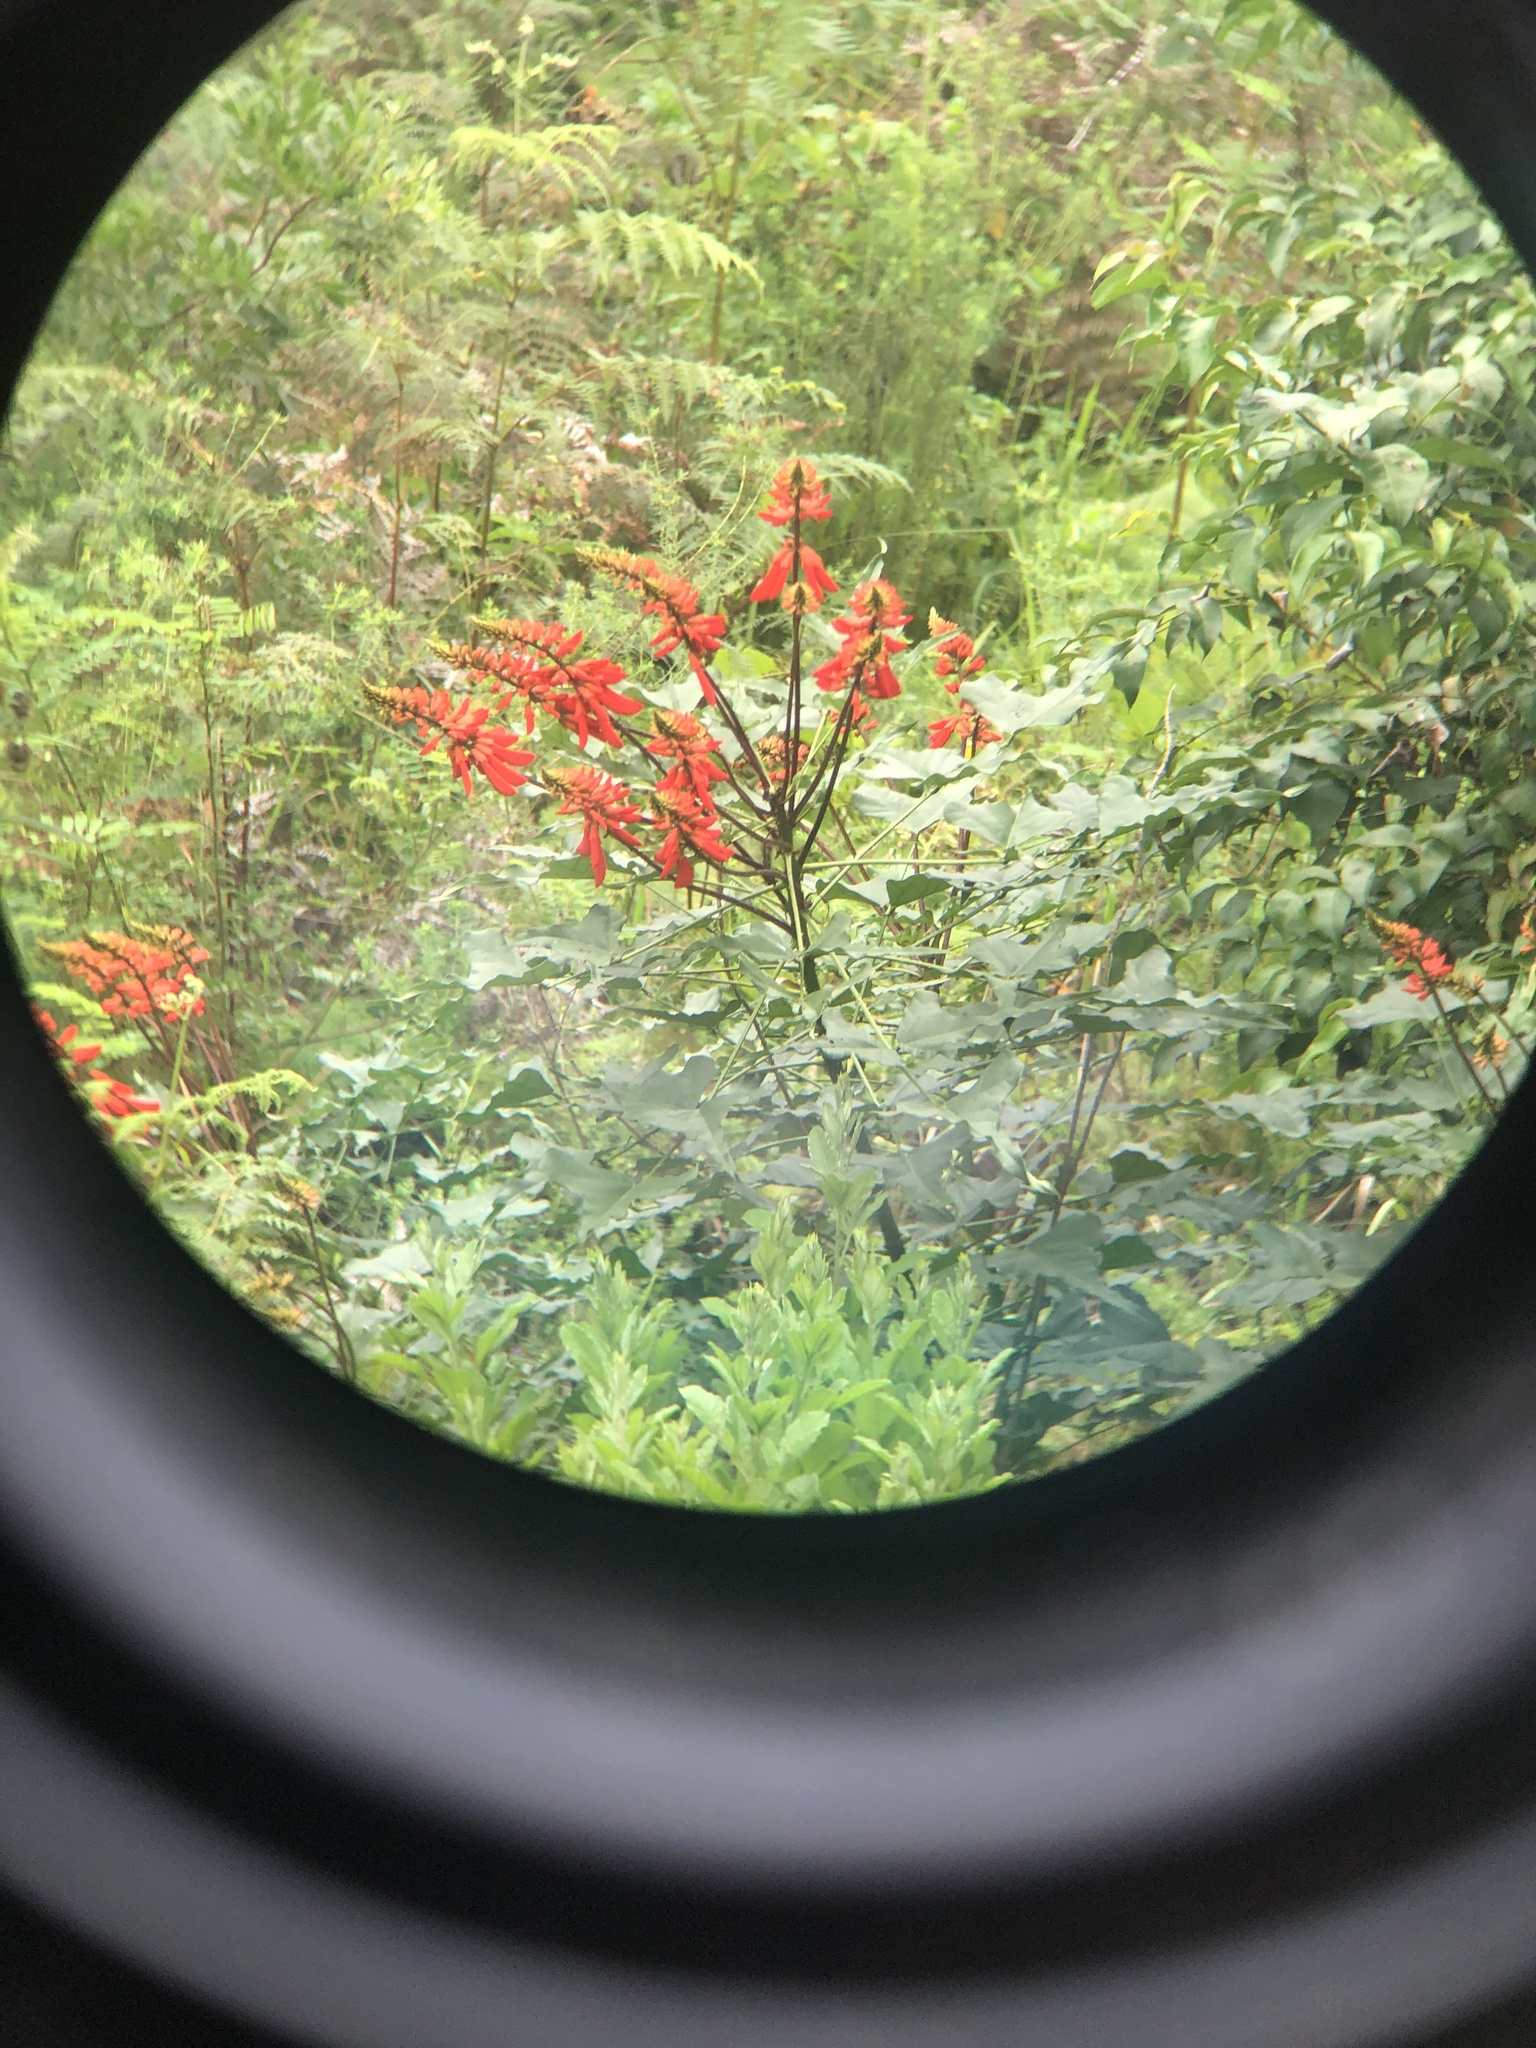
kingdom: Plantae
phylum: Tracheophyta
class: Magnoliopsida
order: Fabales
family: Fabaceae
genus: Erythrina
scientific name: Erythrina humeana
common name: Dwarf coral tree
